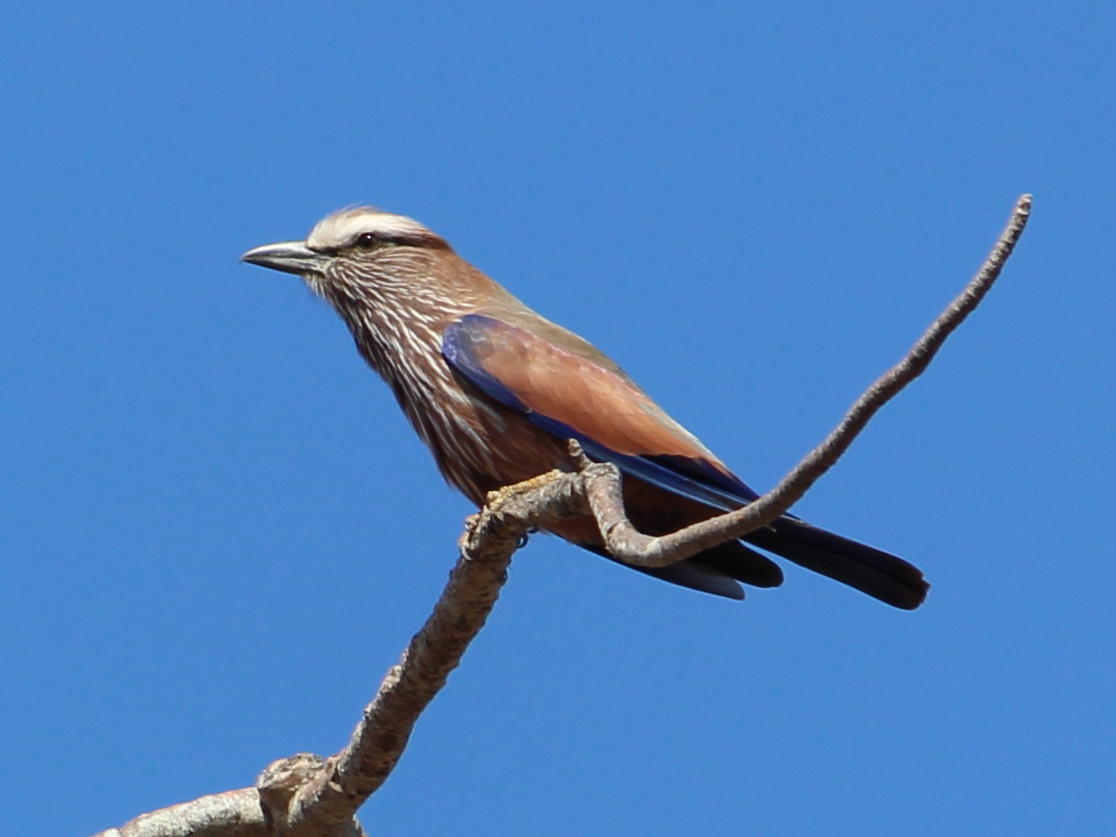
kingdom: Animalia
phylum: Chordata
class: Aves
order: Coraciiformes
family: Coraciidae
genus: Coracias
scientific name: Coracias naevius
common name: Purple roller
